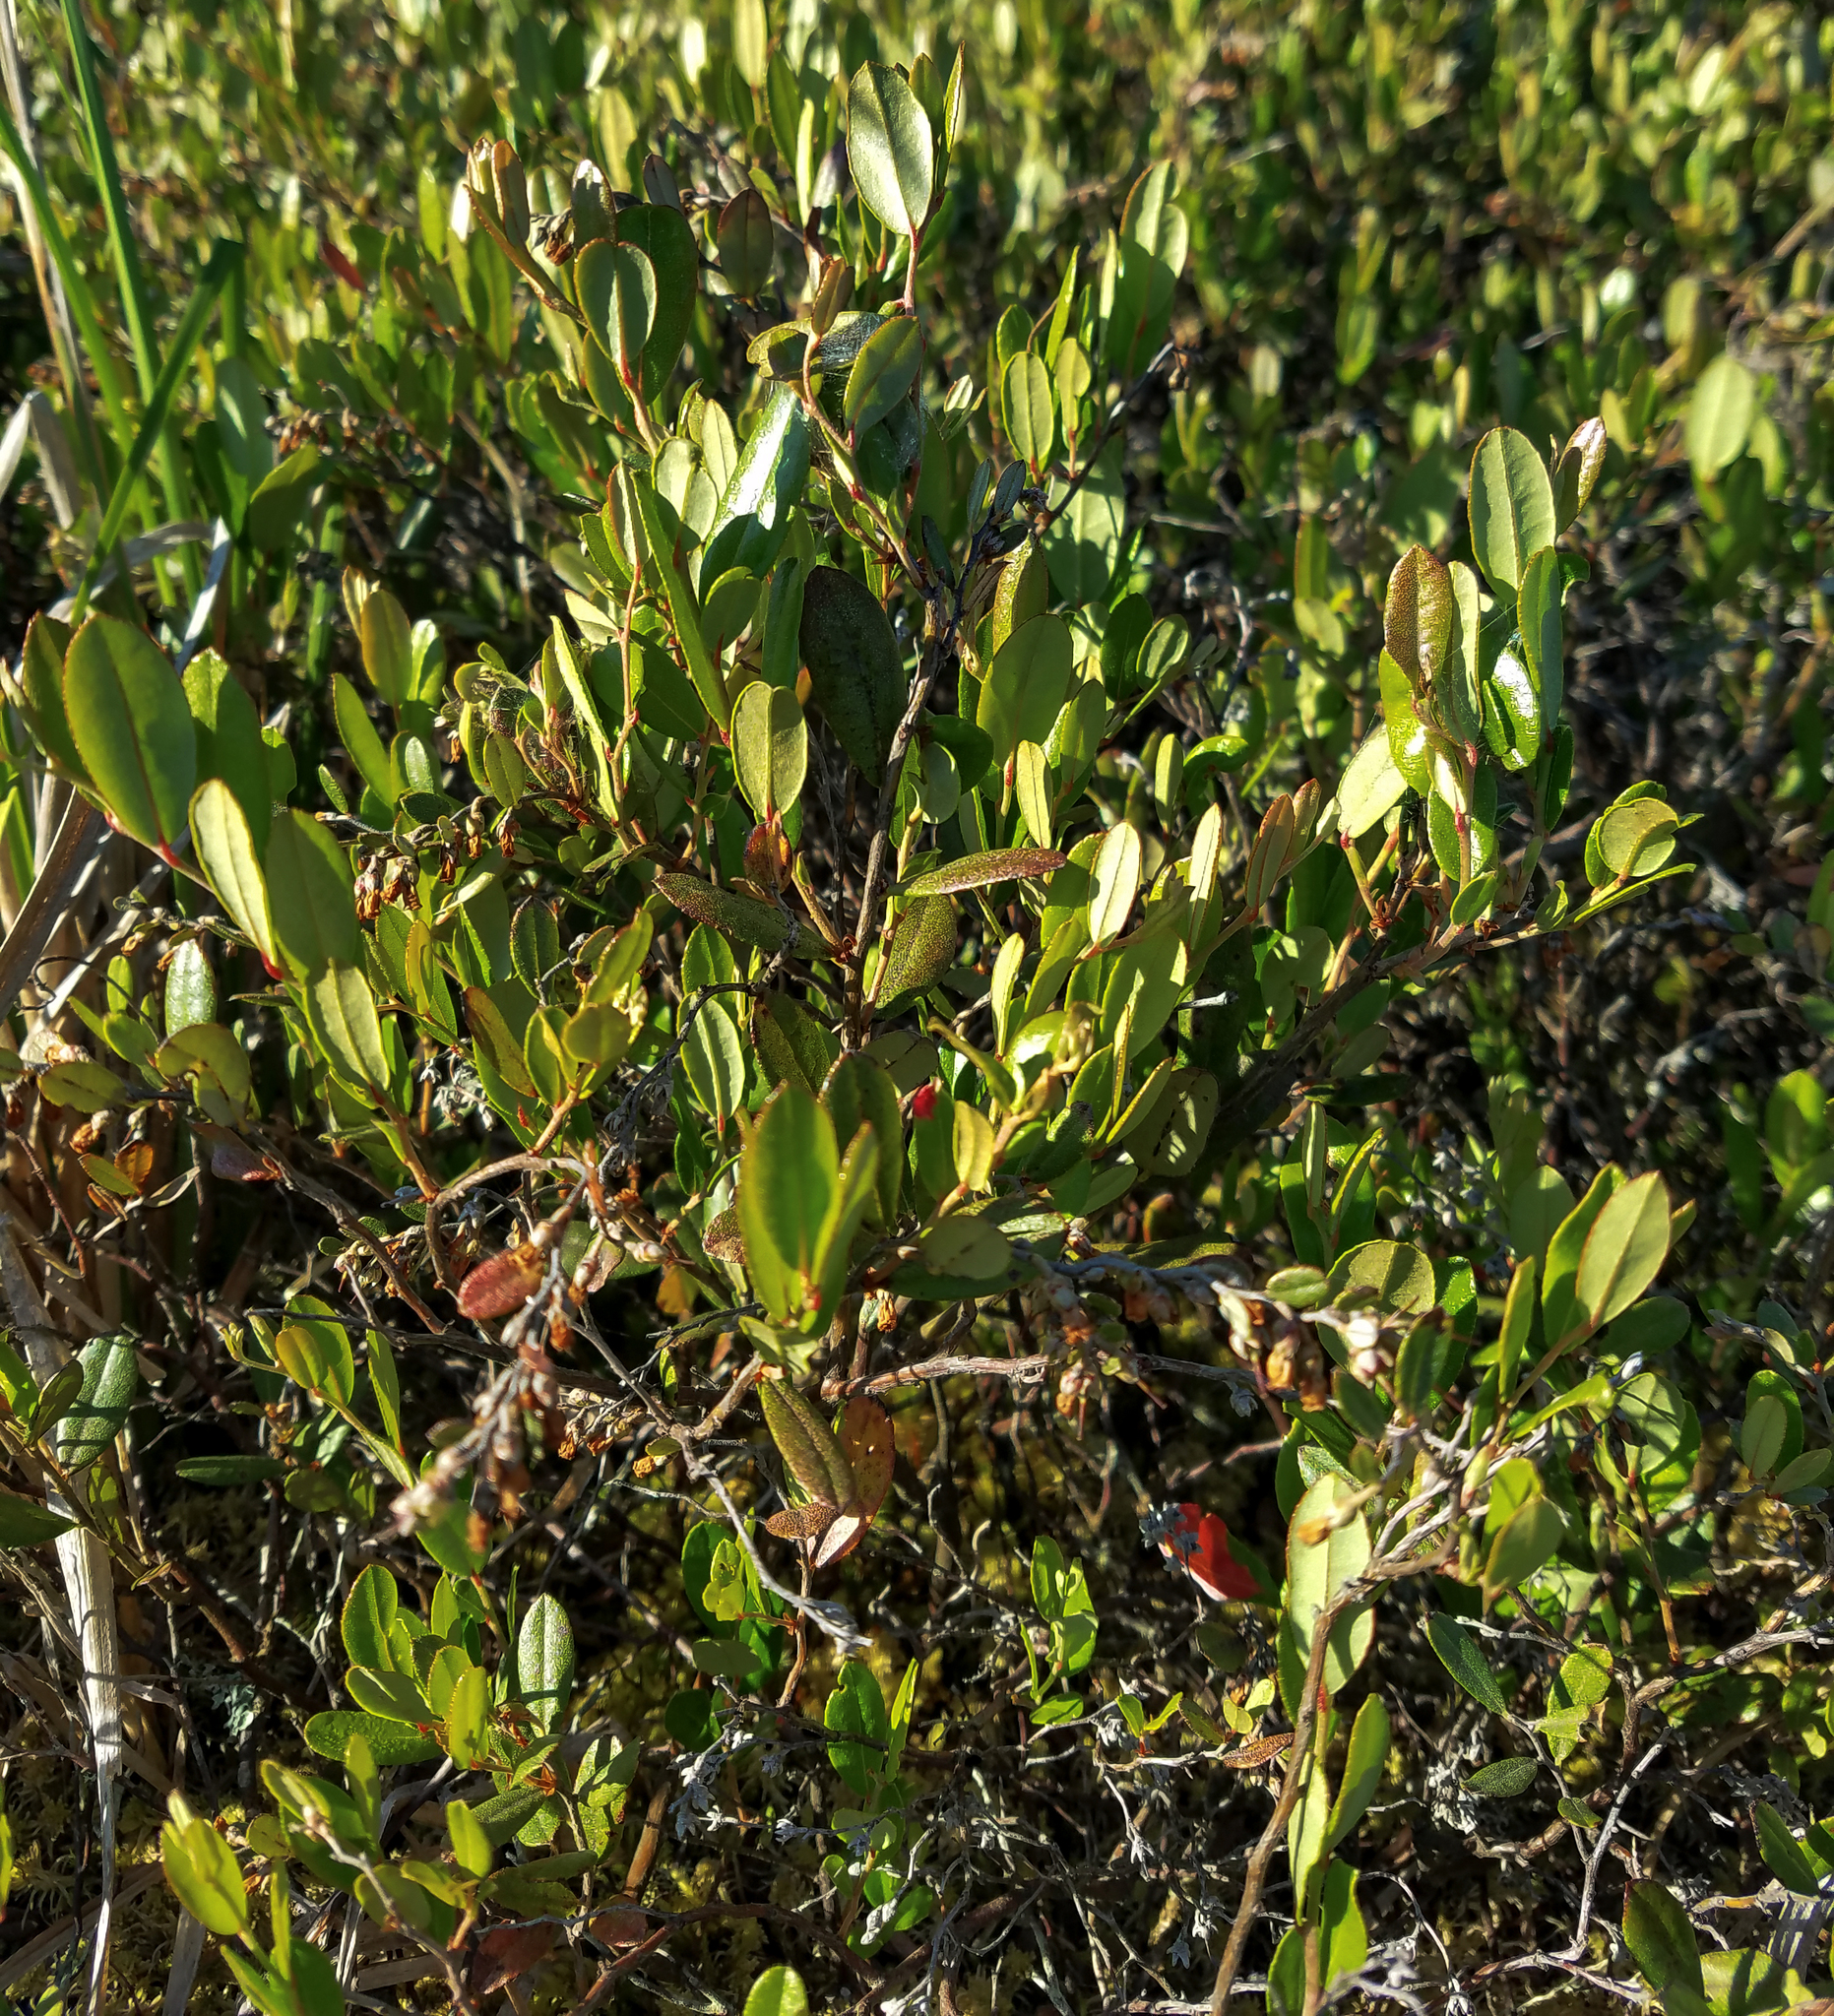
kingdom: Plantae
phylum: Tracheophyta
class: Magnoliopsida
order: Ericales
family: Ericaceae
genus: Chamaedaphne
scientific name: Chamaedaphne calyculata
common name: Leatherleaf
